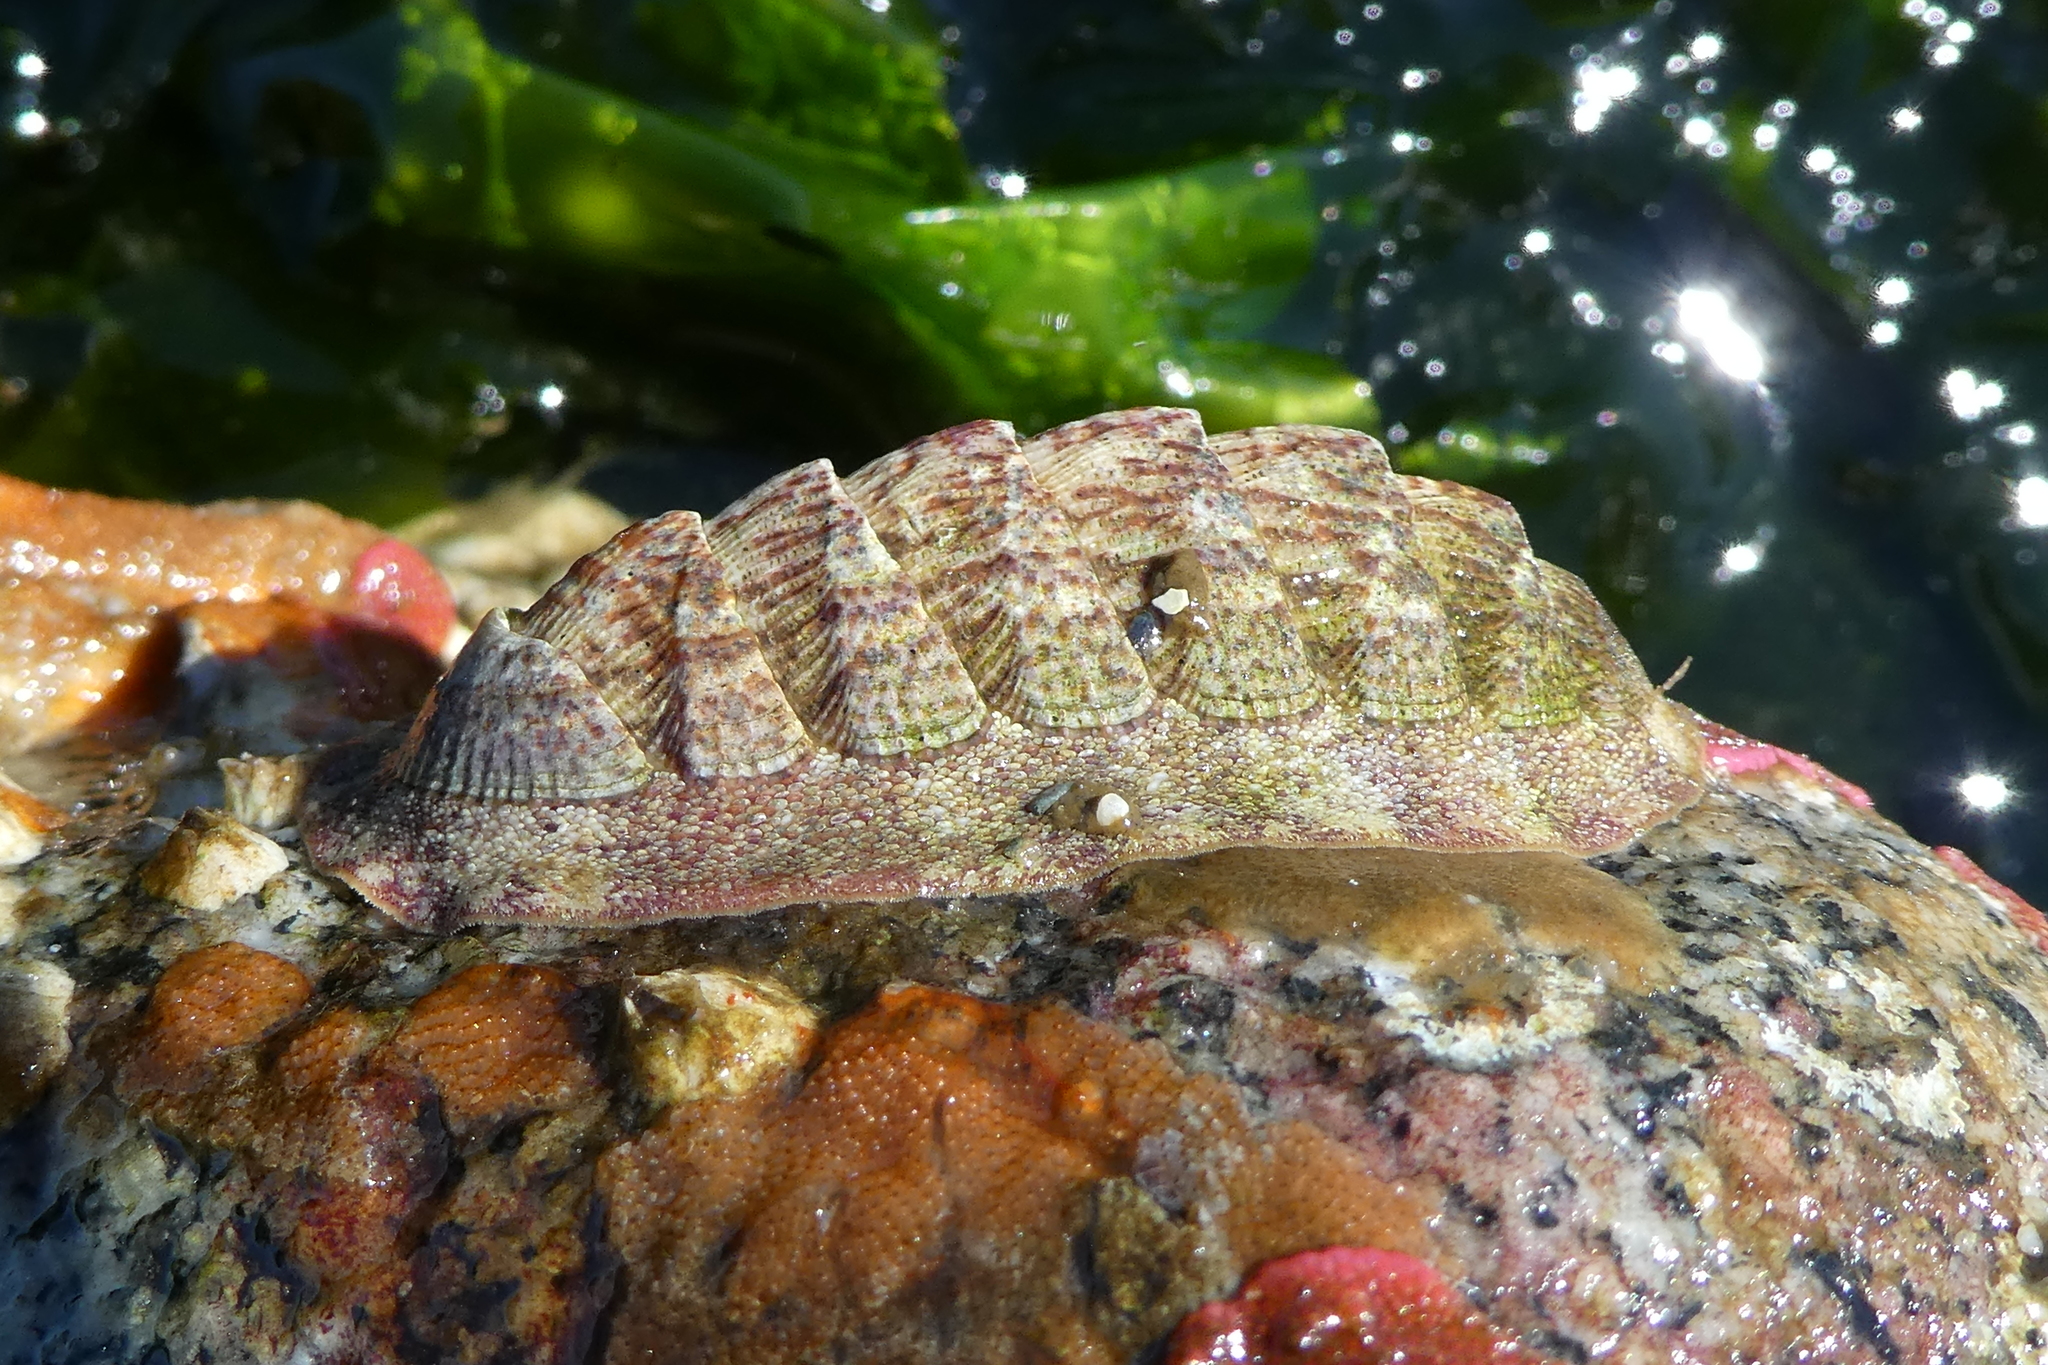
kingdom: Animalia
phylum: Mollusca
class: Polyplacophora
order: Chitonida
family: Ischnochitonidae
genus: Lepidozona
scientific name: Lepidozona mertensii
